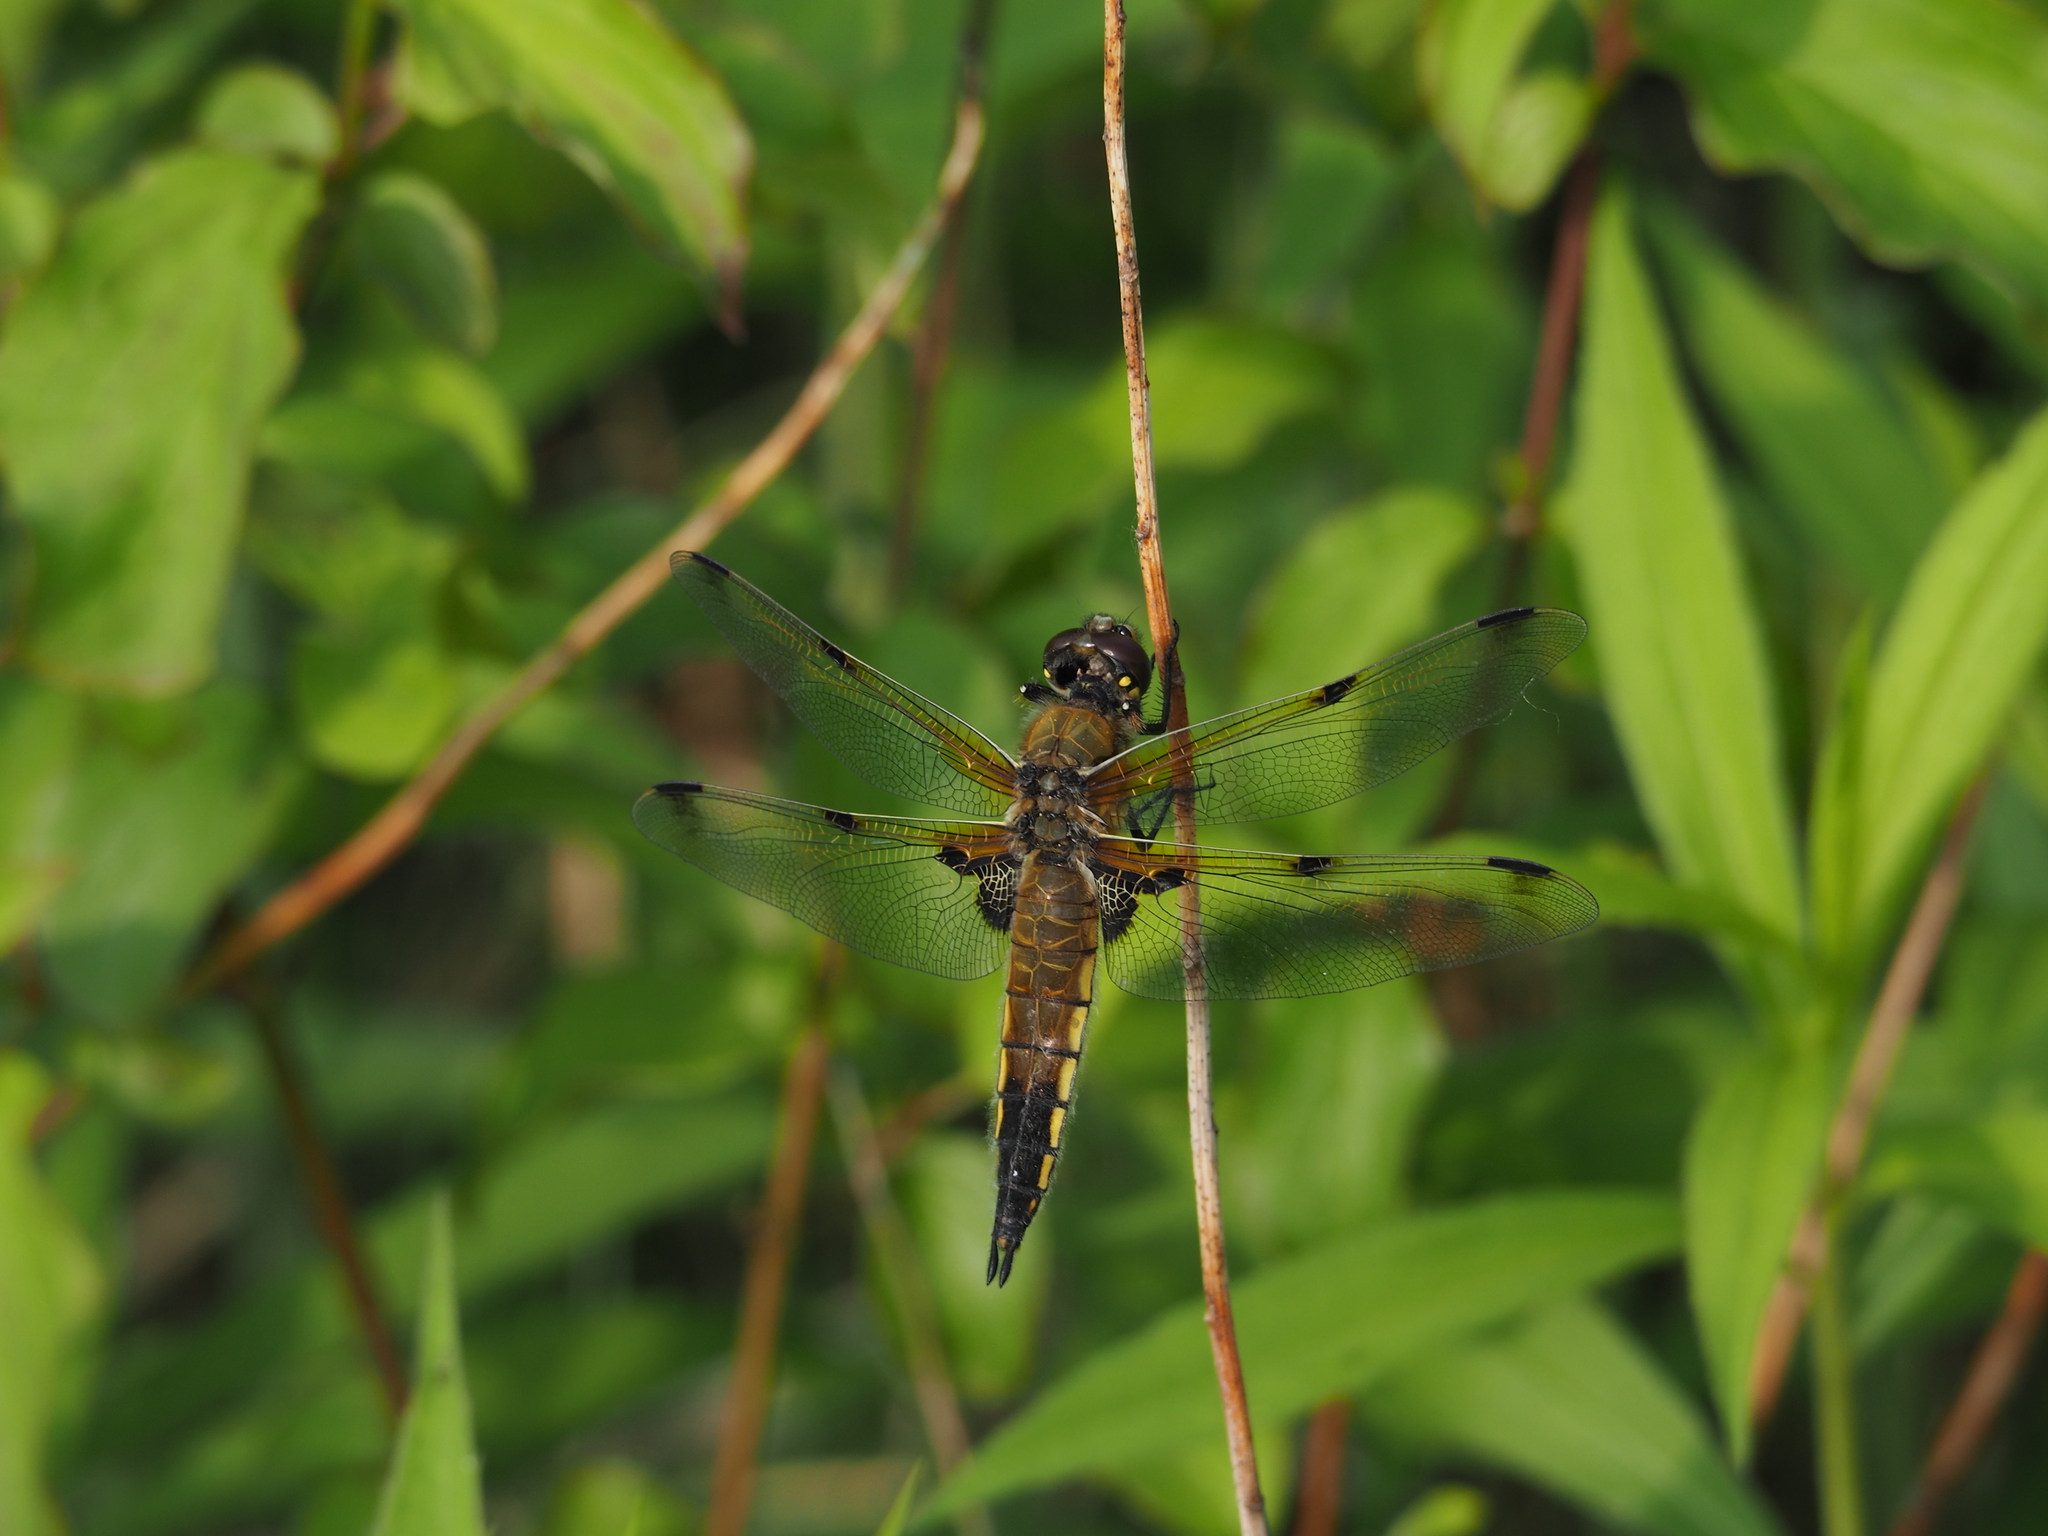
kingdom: Animalia
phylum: Arthropoda
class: Insecta
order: Odonata
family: Libellulidae
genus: Libellula
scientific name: Libellula quadrimaculata
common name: Four-spotted chaser
